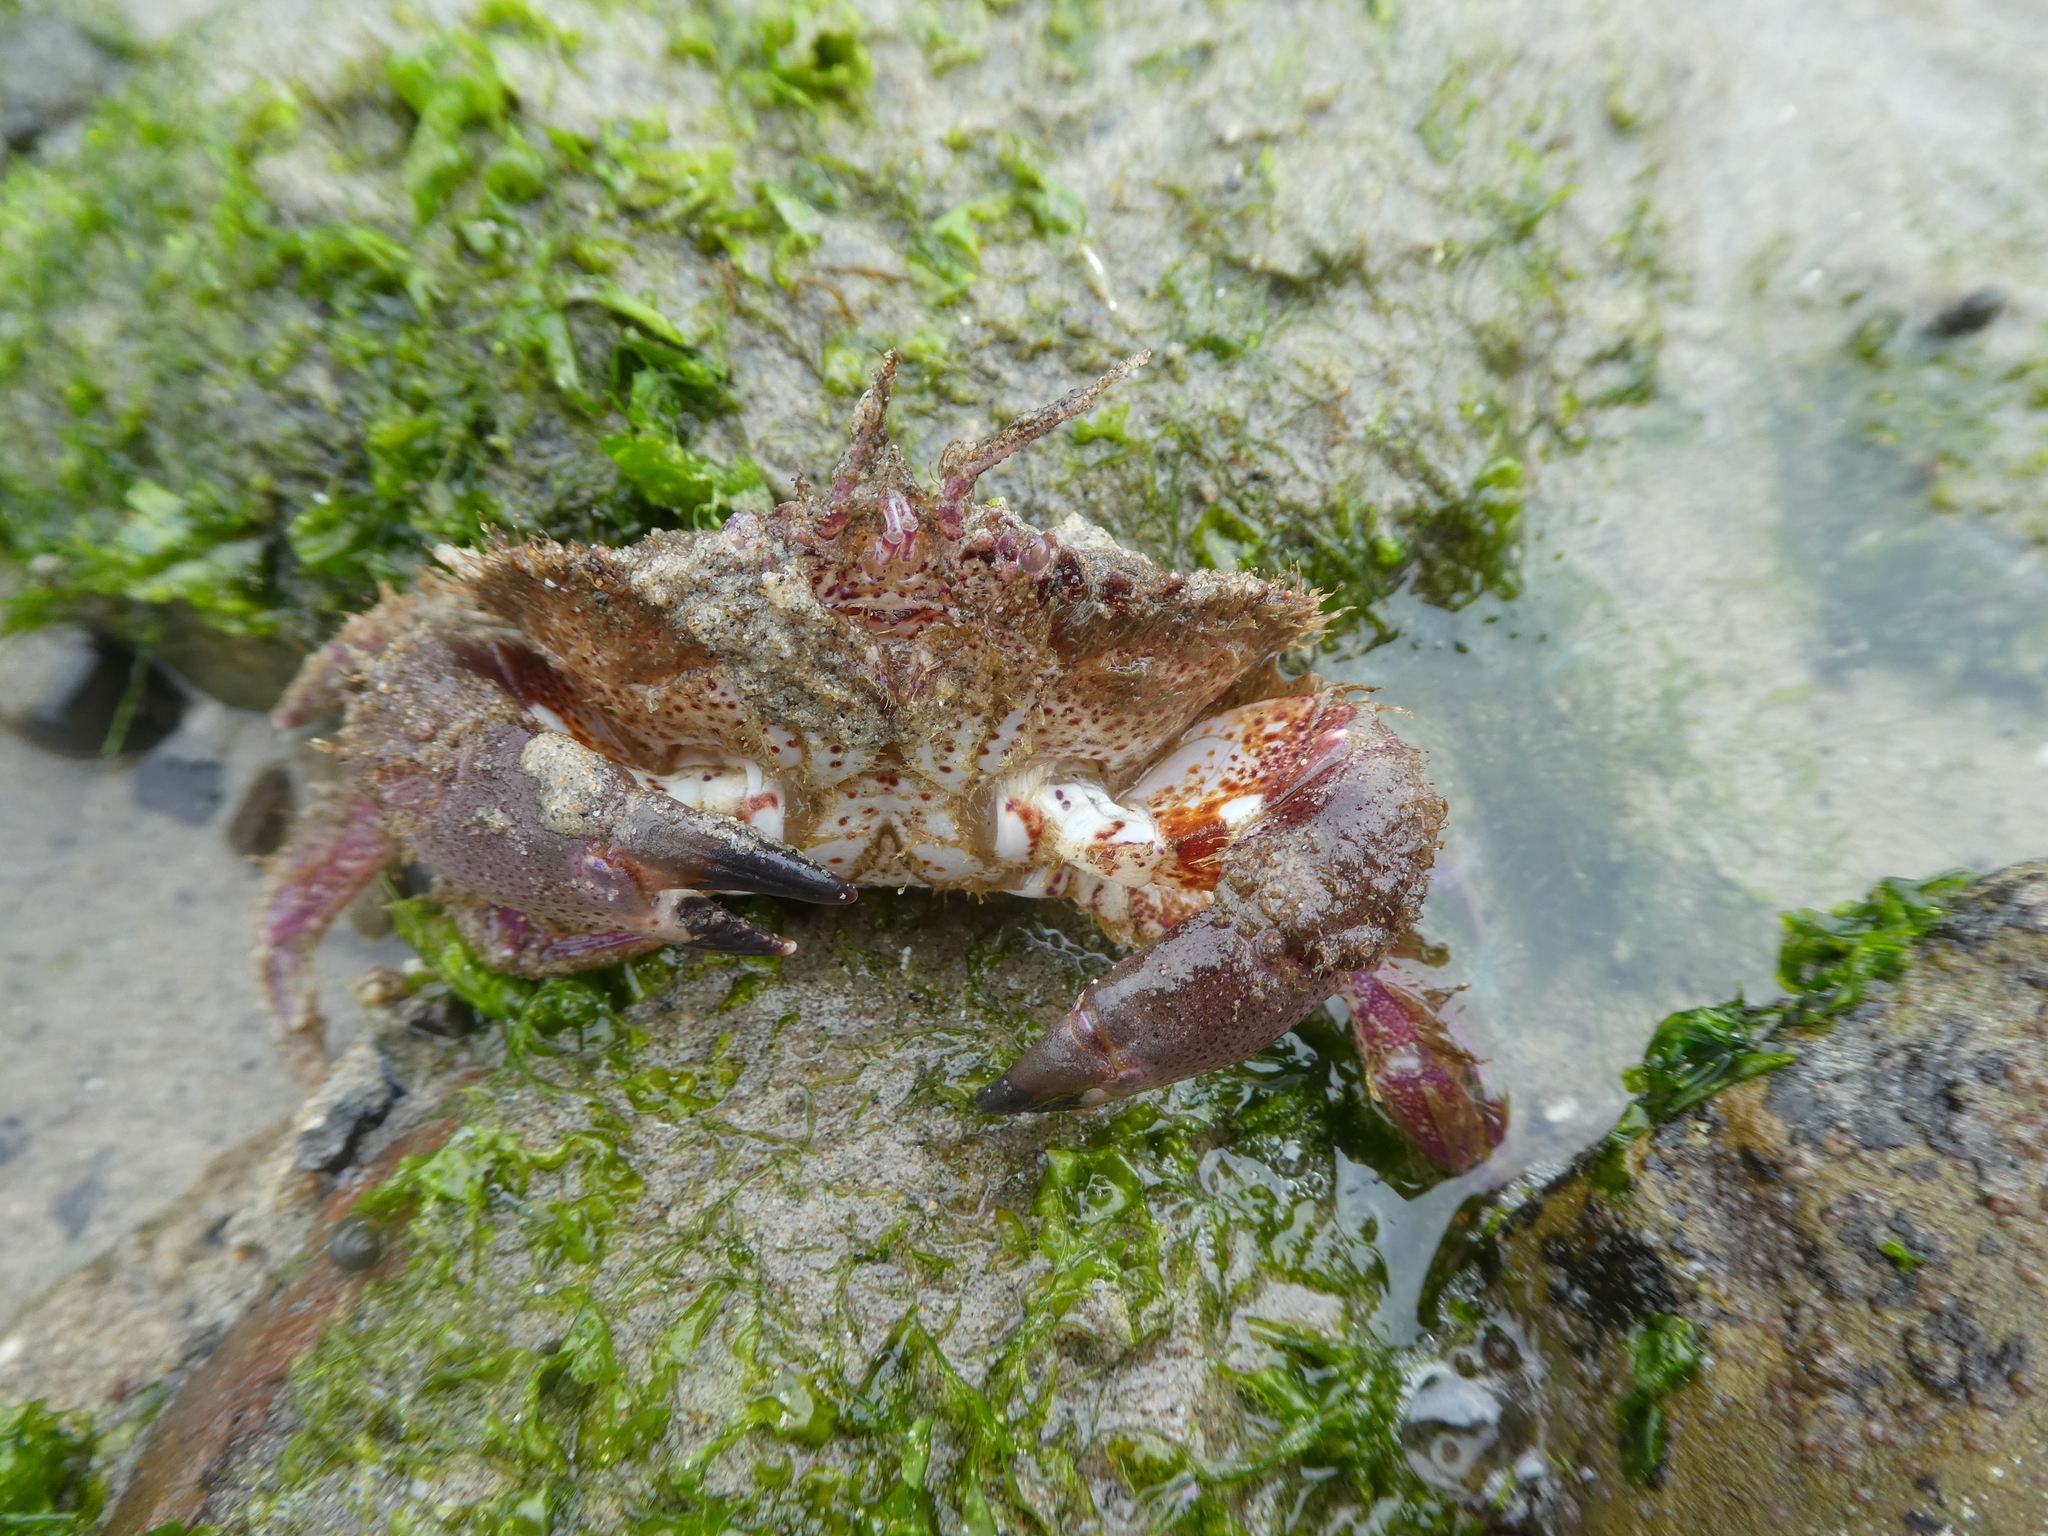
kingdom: Animalia
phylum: Arthropoda
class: Malacostraca
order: Decapoda
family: Cancridae
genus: Romaleon
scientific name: Romaleon antennarium
